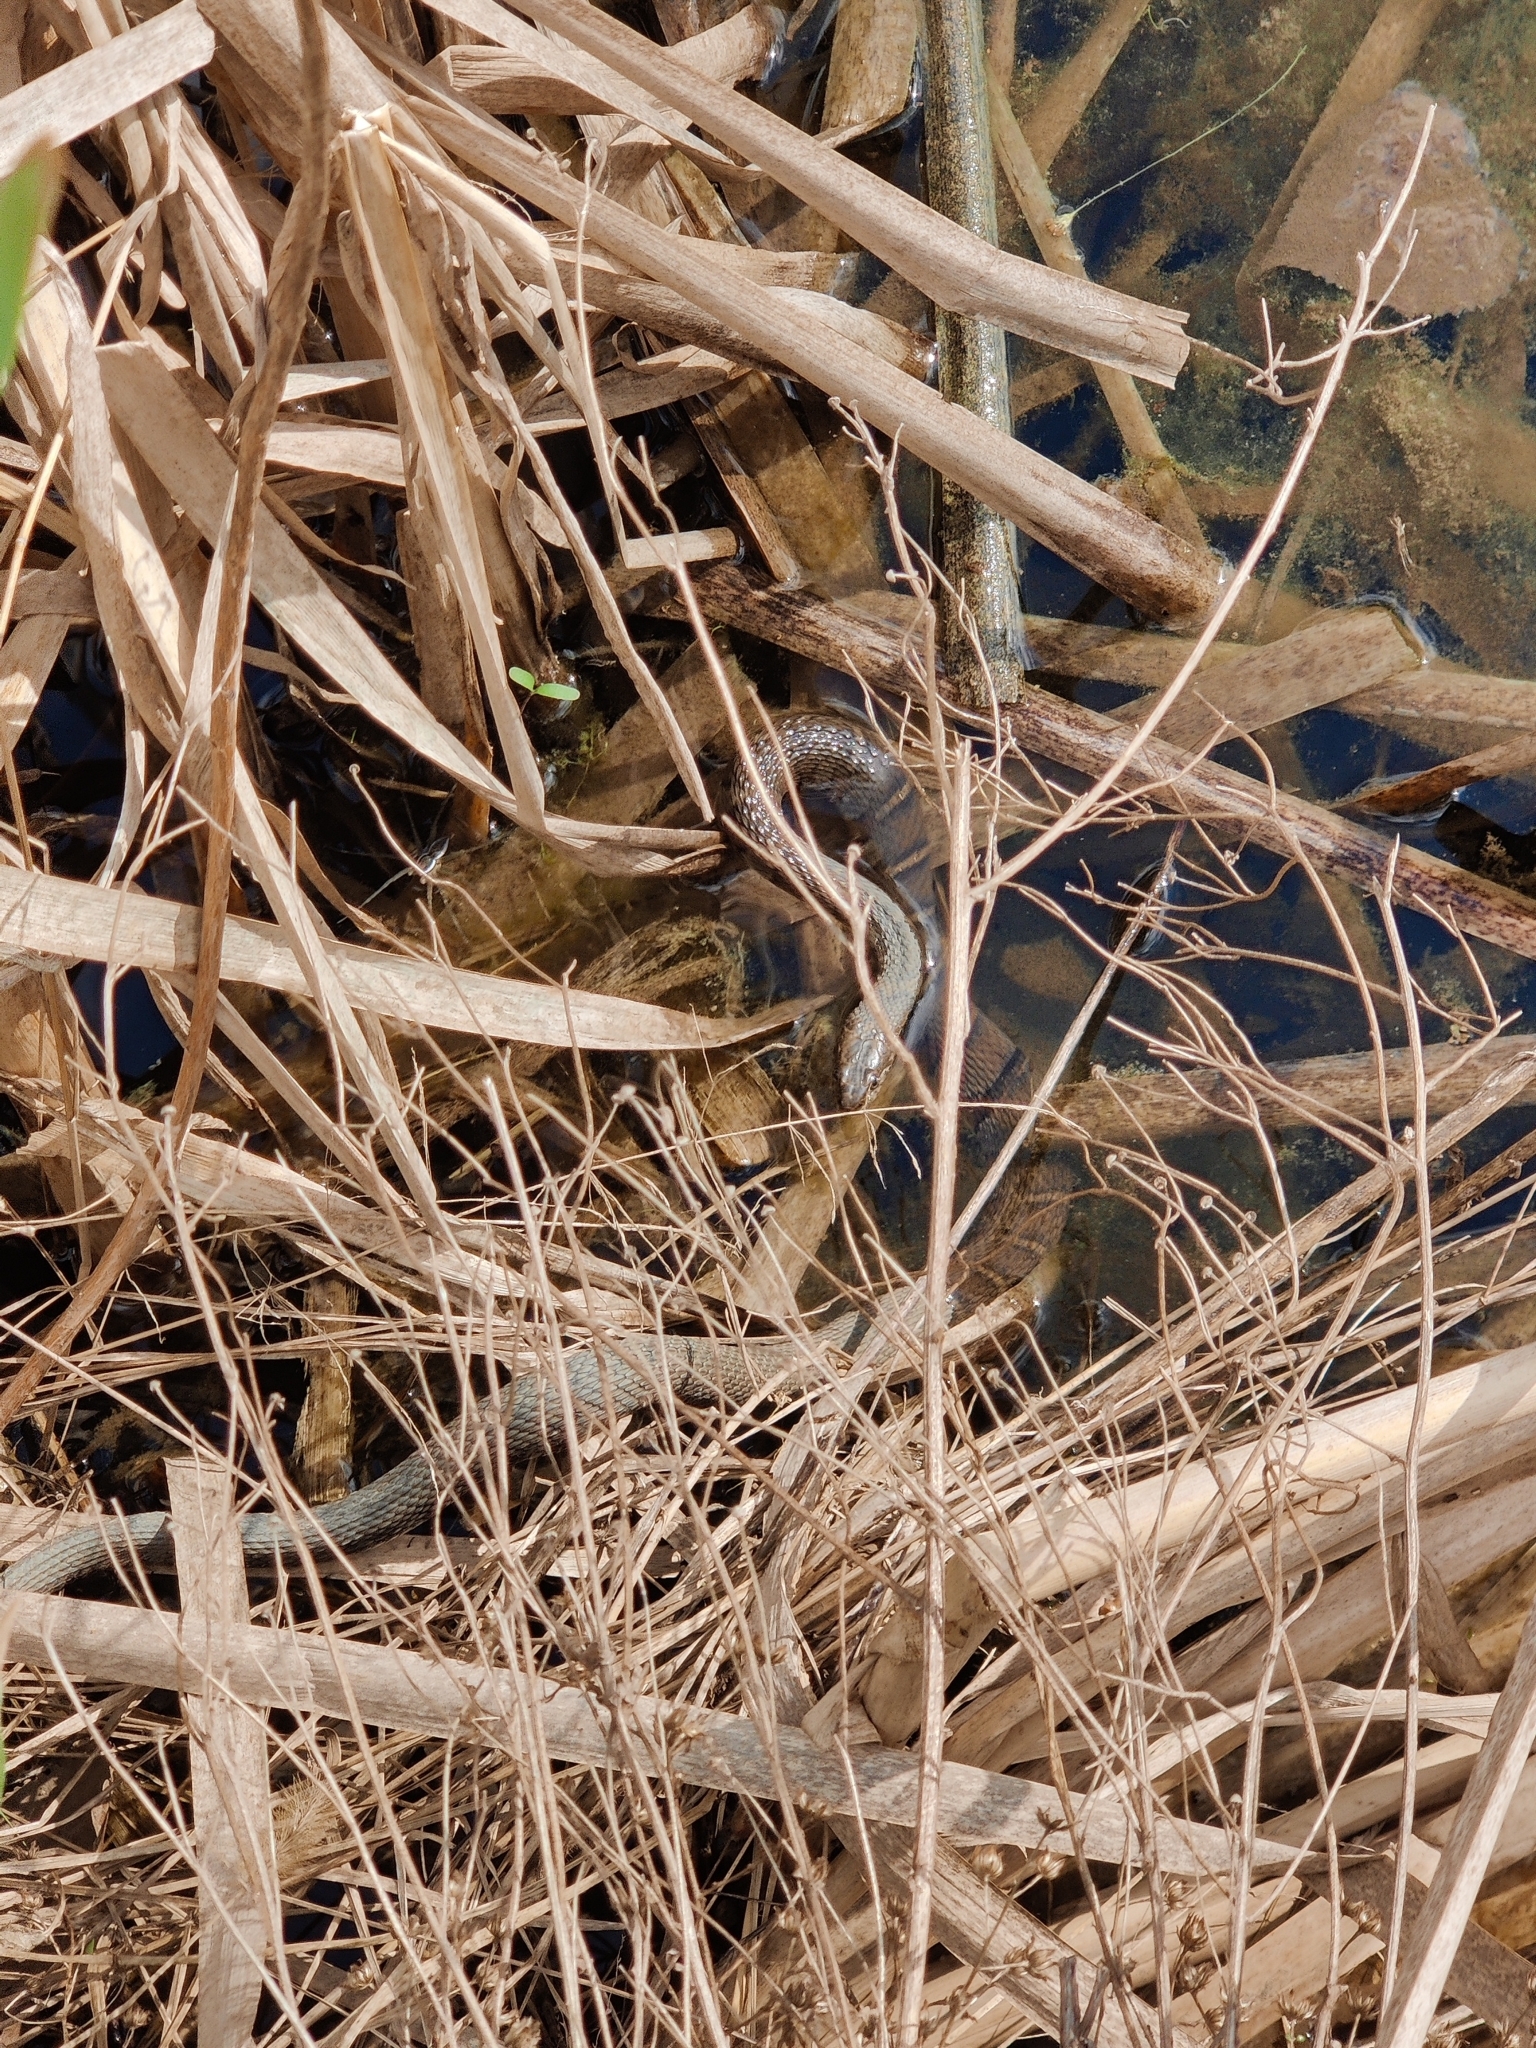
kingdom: Animalia
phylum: Chordata
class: Squamata
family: Colubridae
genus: Nerodia
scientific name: Nerodia sipedon
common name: Northern water snake
